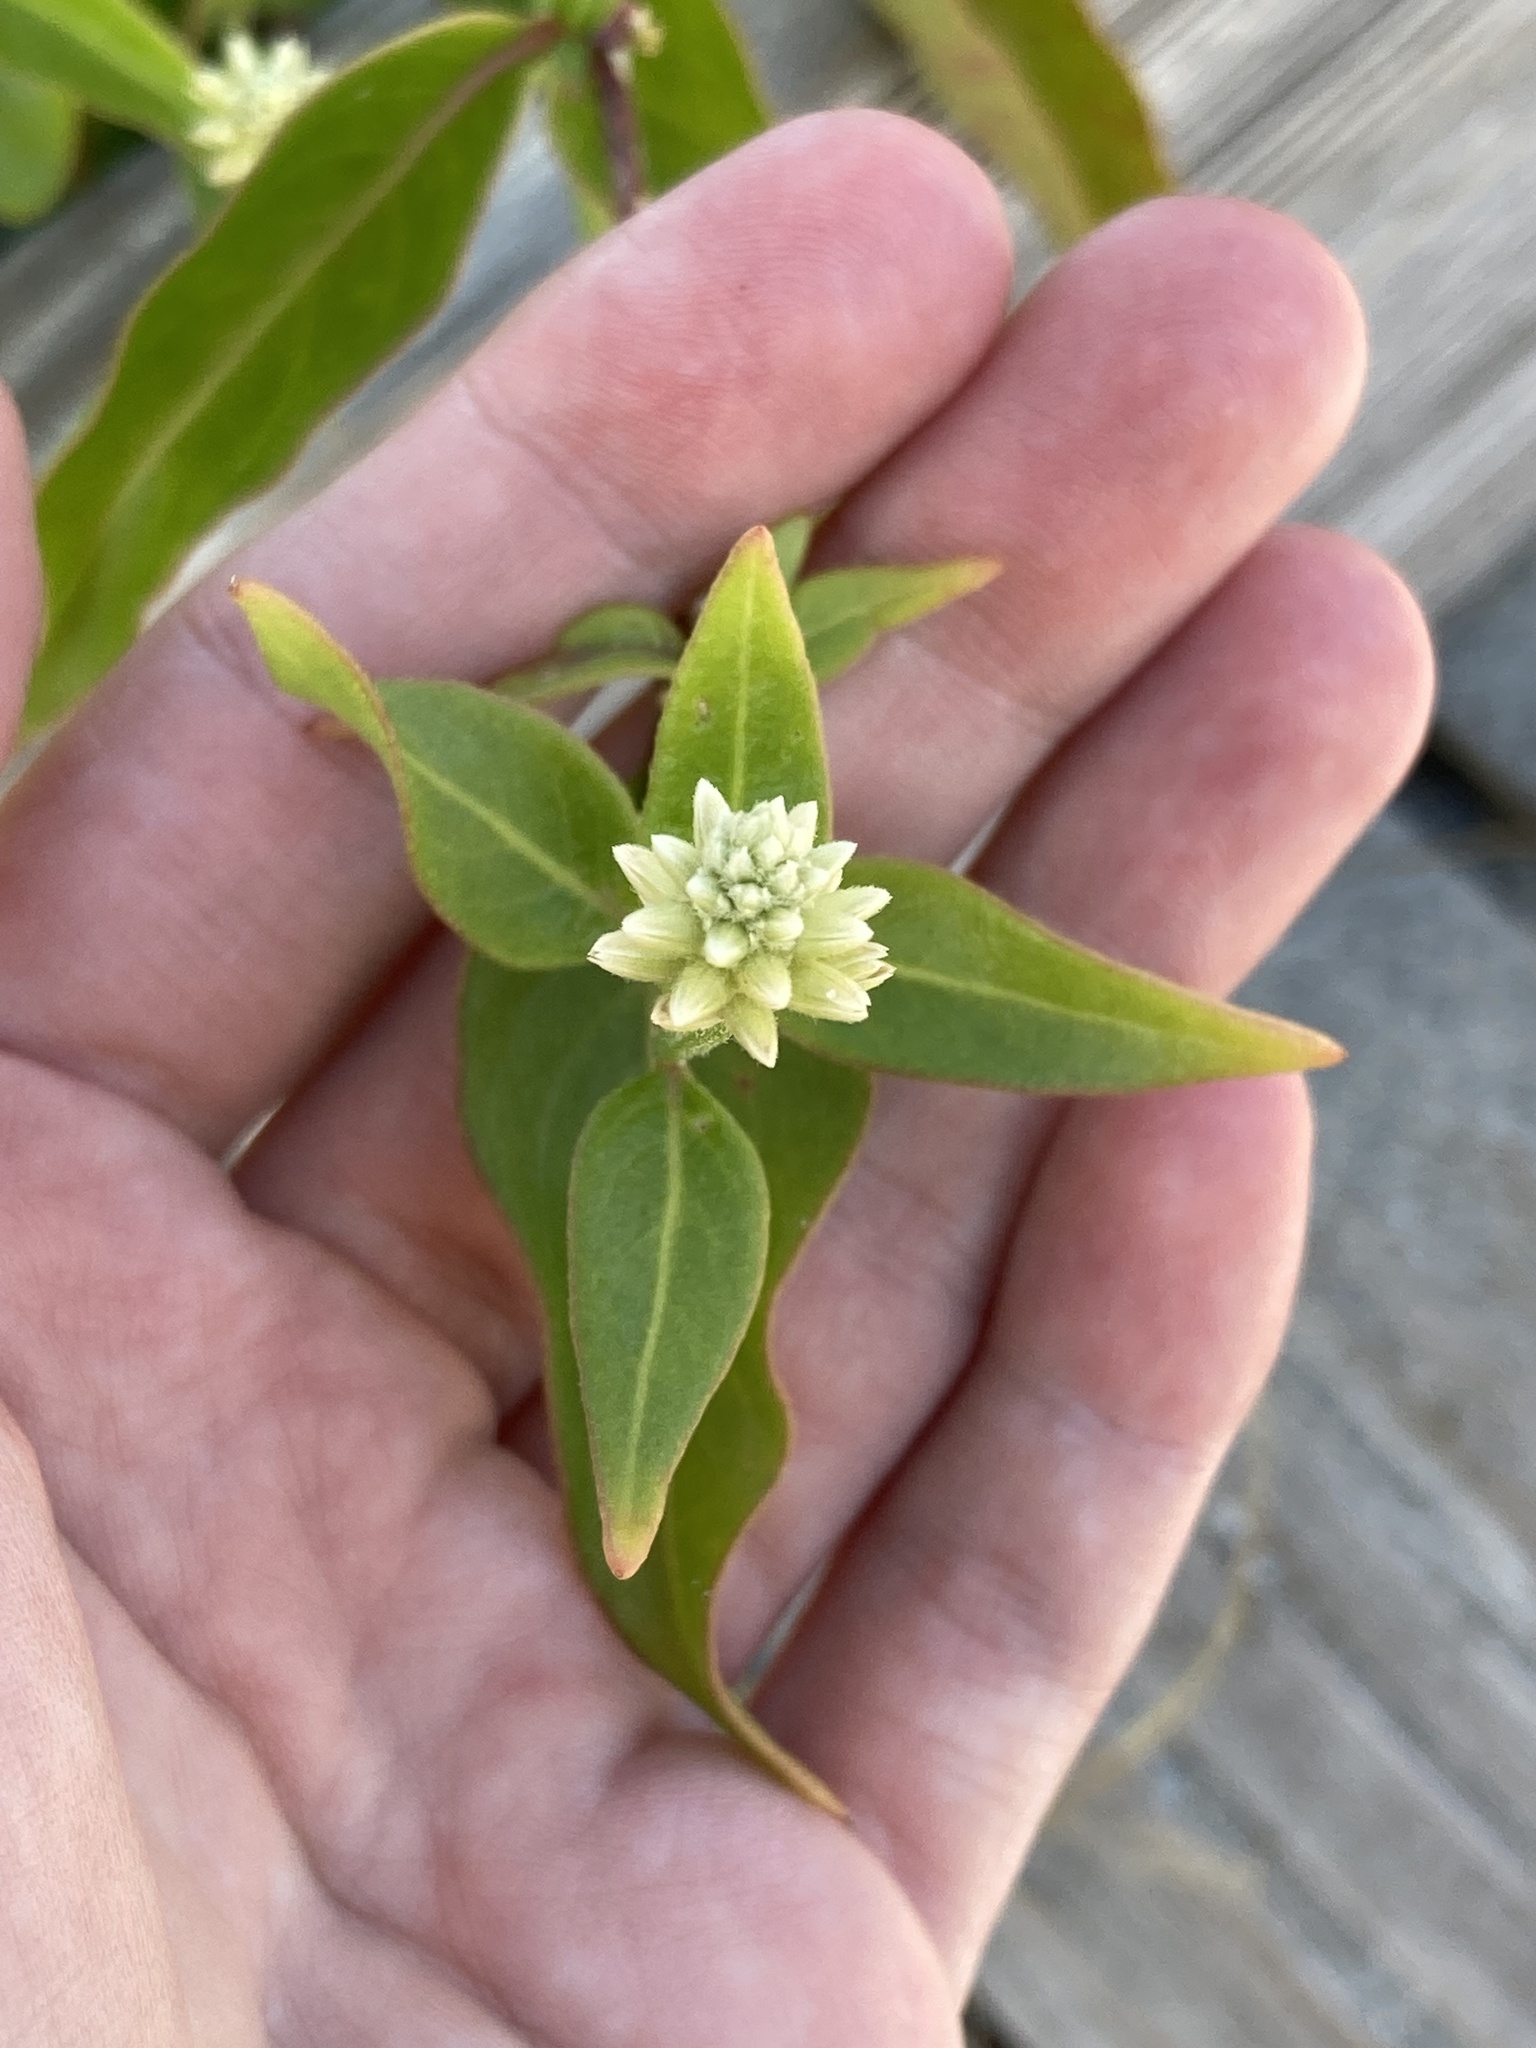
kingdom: Plantae
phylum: Tracheophyta
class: Magnoliopsida
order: Caryophyllales
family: Amaranthaceae
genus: Alternanthera
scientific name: Alternanthera flavescens
